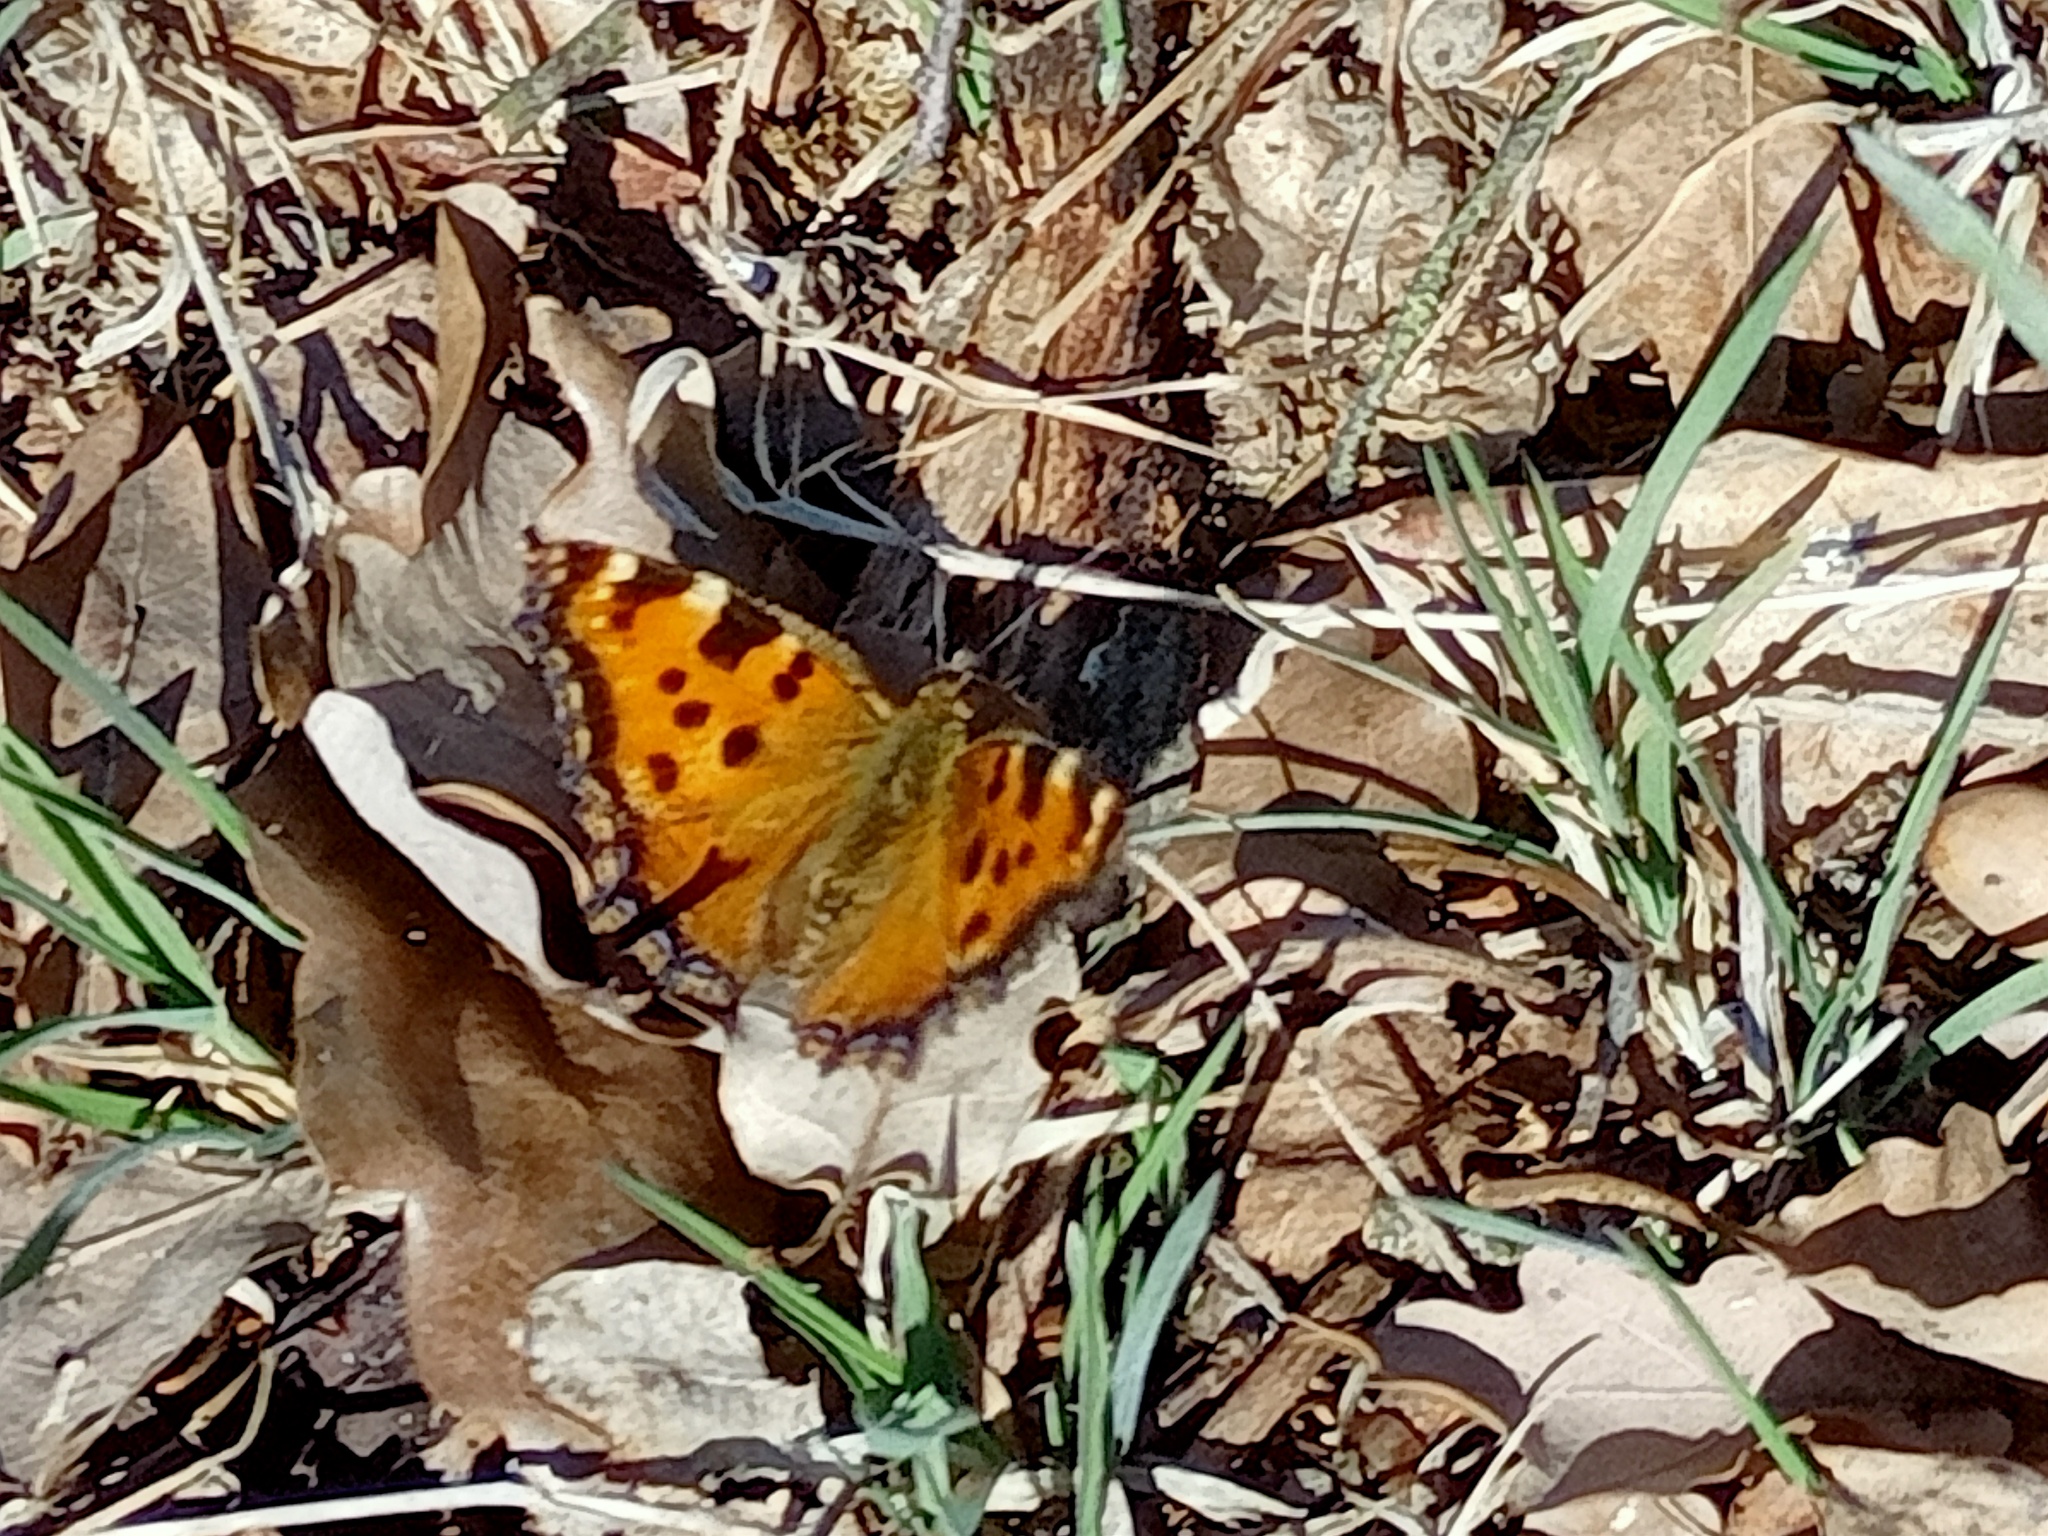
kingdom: Animalia
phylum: Arthropoda
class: Insecta
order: Lepidoptera
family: Nymphalidae
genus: Nymphalis
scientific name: Nymphalis polychloros
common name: Large tortoiseshell
